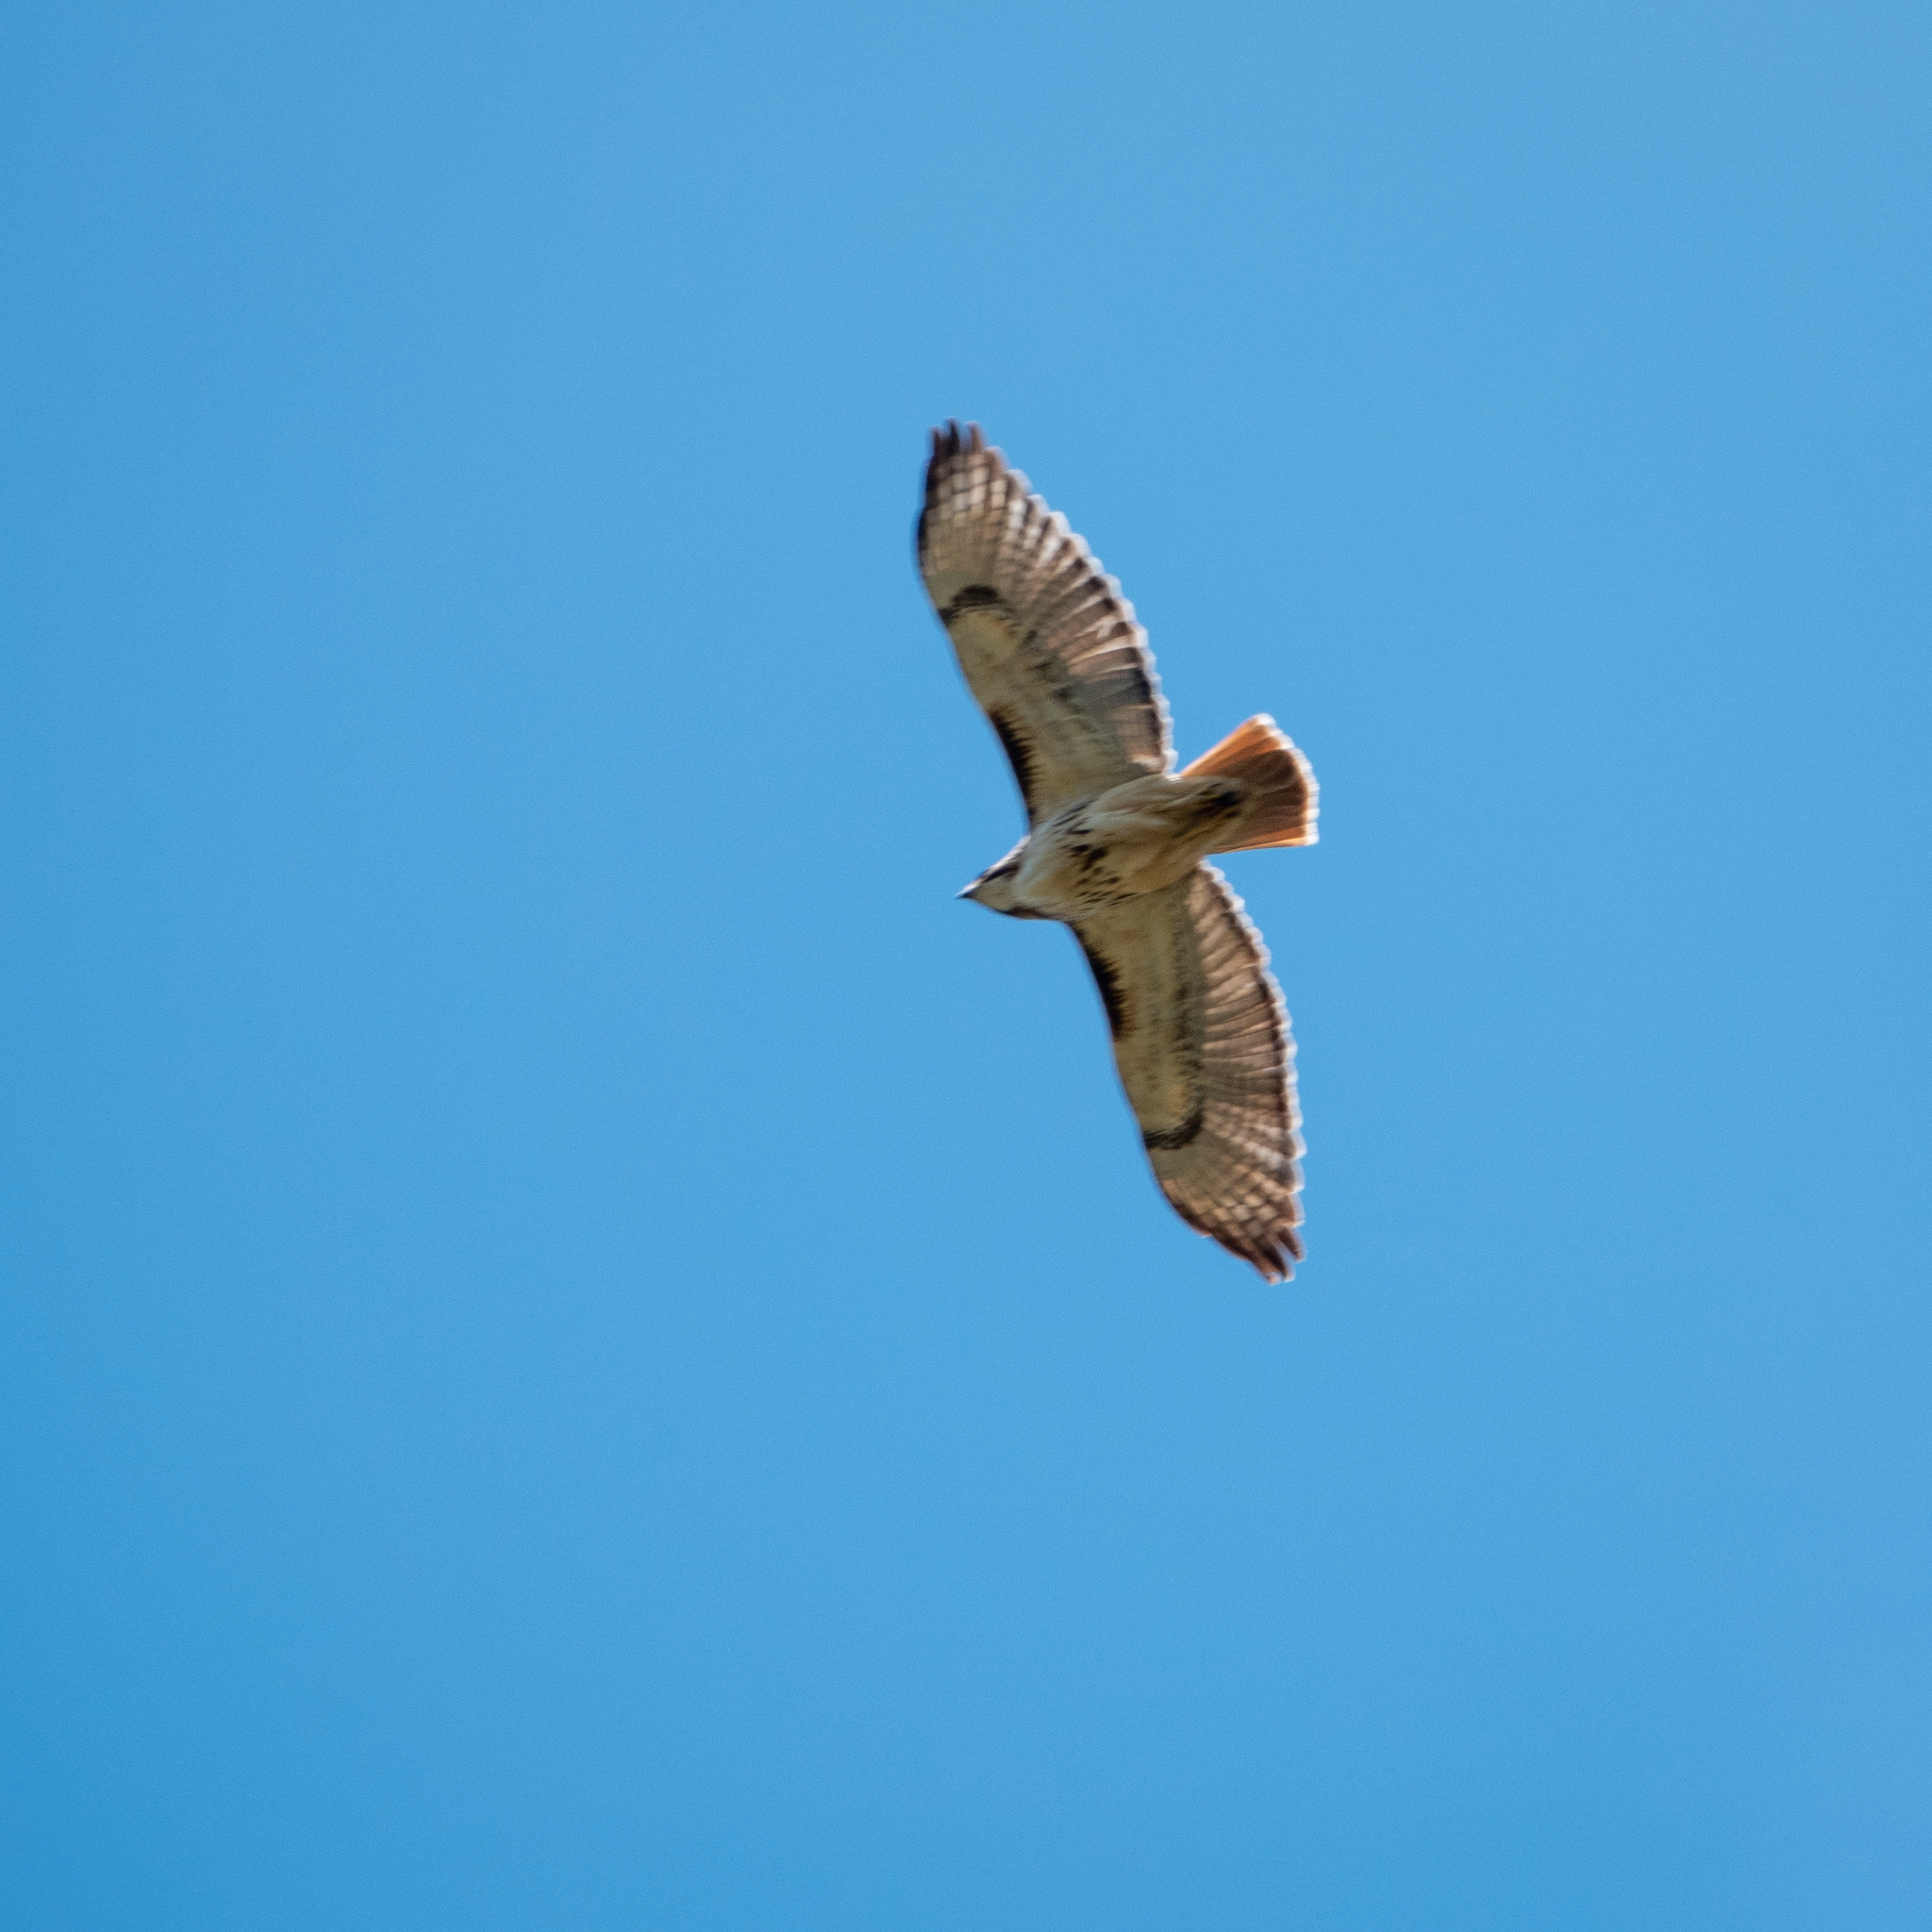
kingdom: Animalia
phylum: Chordata
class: Aves
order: Accipitriformes
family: Accipitridae
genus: Buteo
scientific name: Buteo jamaicensis
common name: Red-tailed hawk
